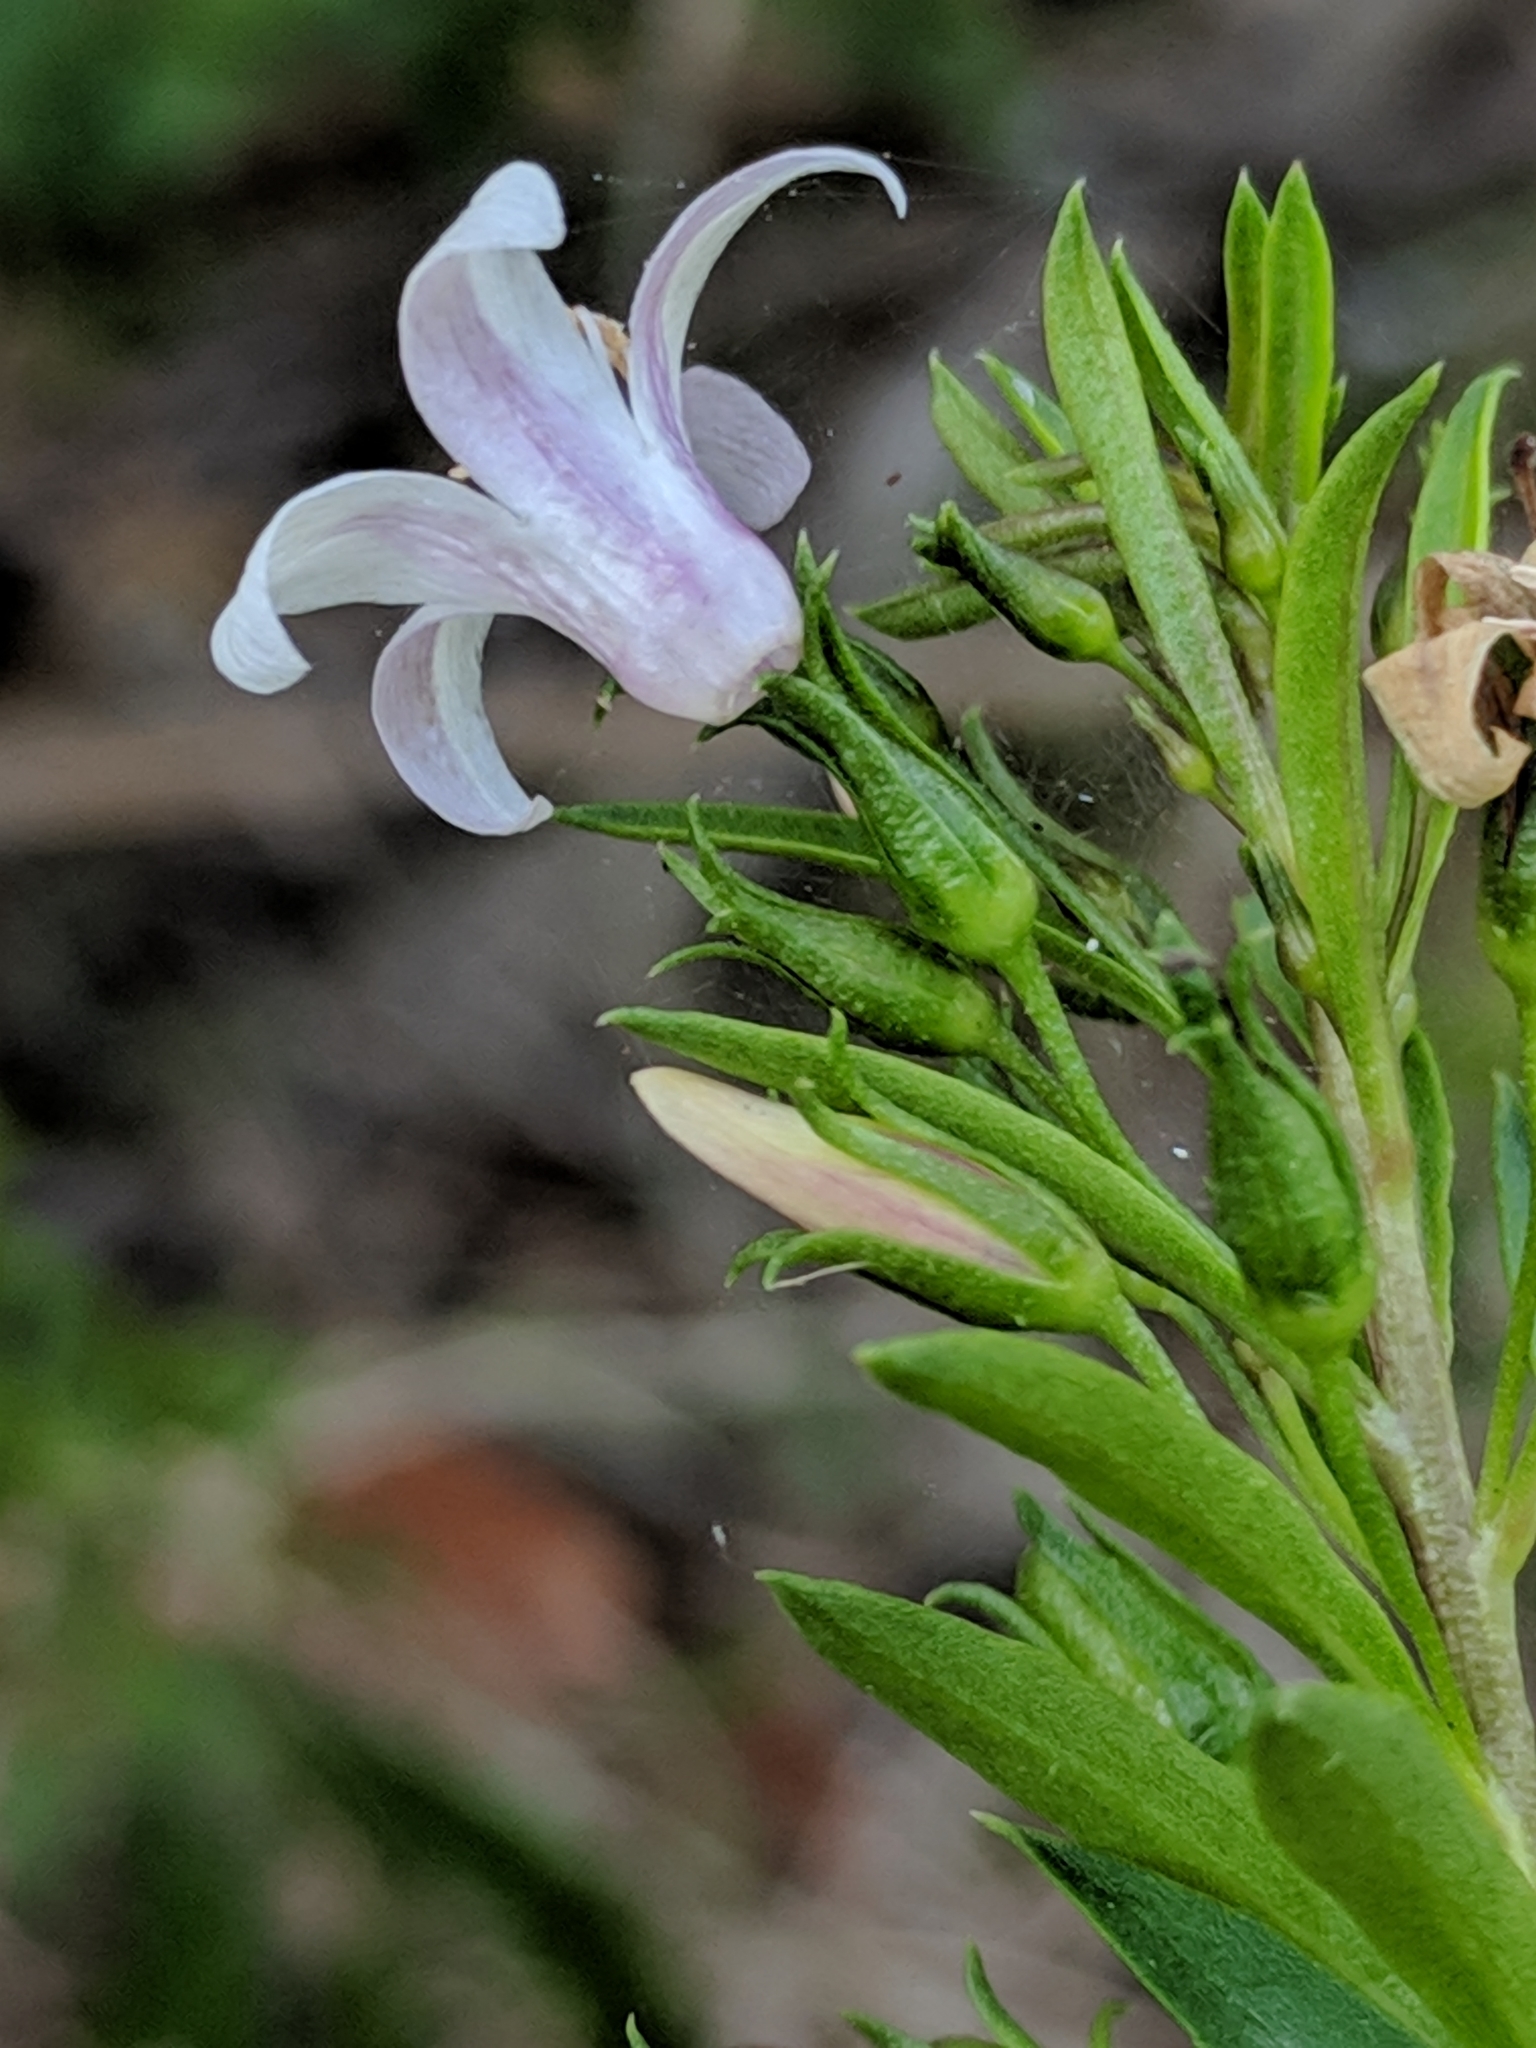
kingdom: Plantae
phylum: Tracheophyta
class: Magnoliopsida
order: Lamiales
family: Scrophulariaceae
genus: Capraria
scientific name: Capraria biflora
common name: Goatweed
